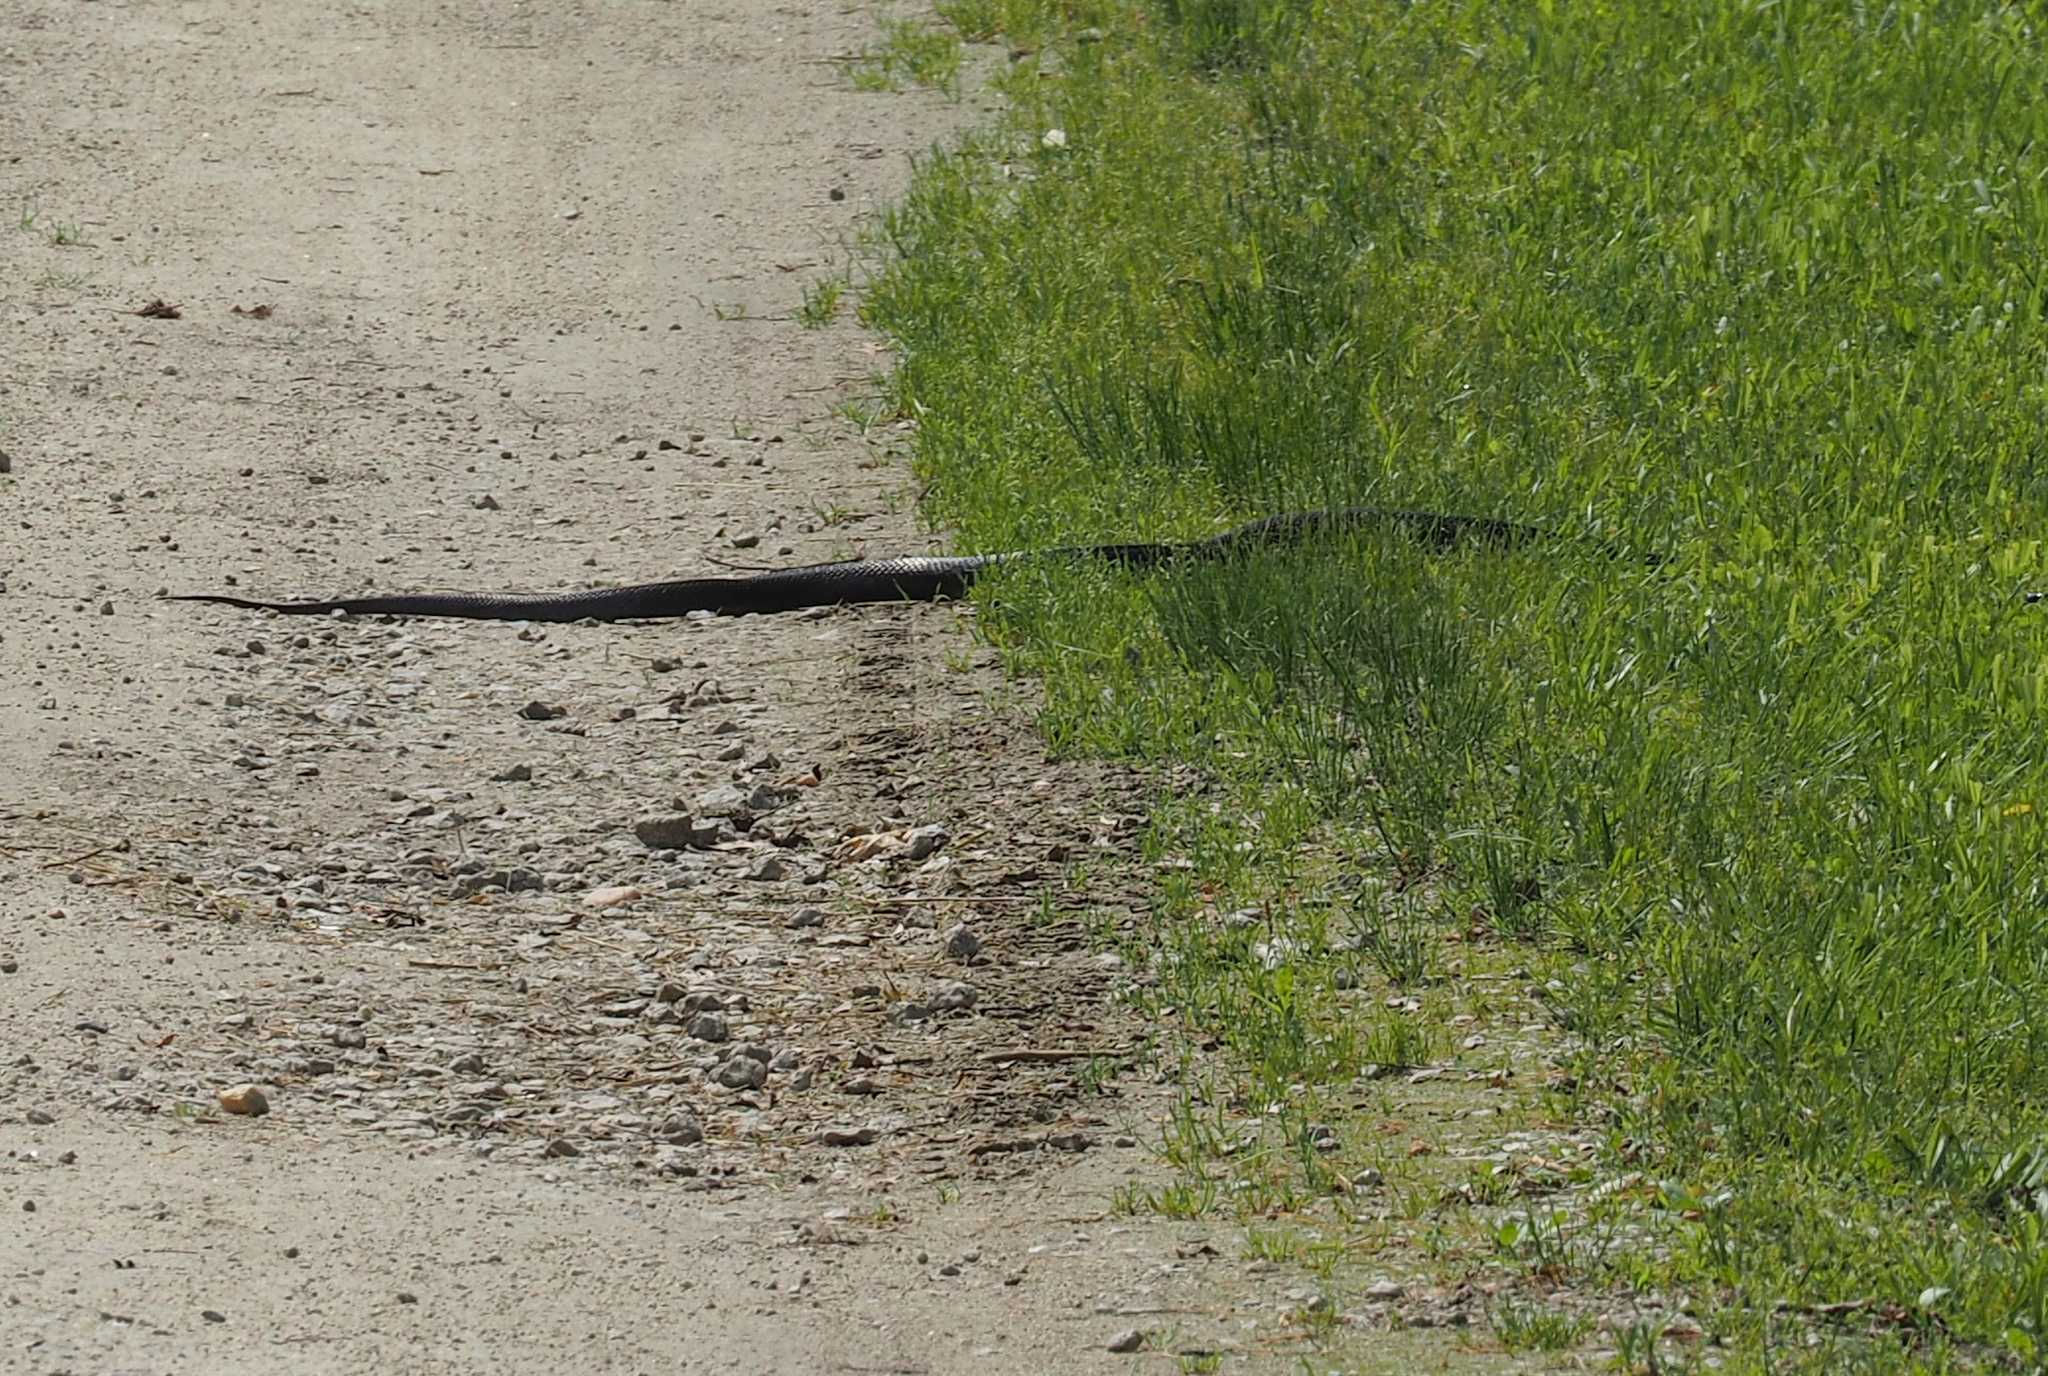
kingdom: Animalia
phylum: Chordata
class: Squamata
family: Colubridae
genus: Pantherophis
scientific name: Pantherophis alleghaniensis
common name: Eastern rat snake
